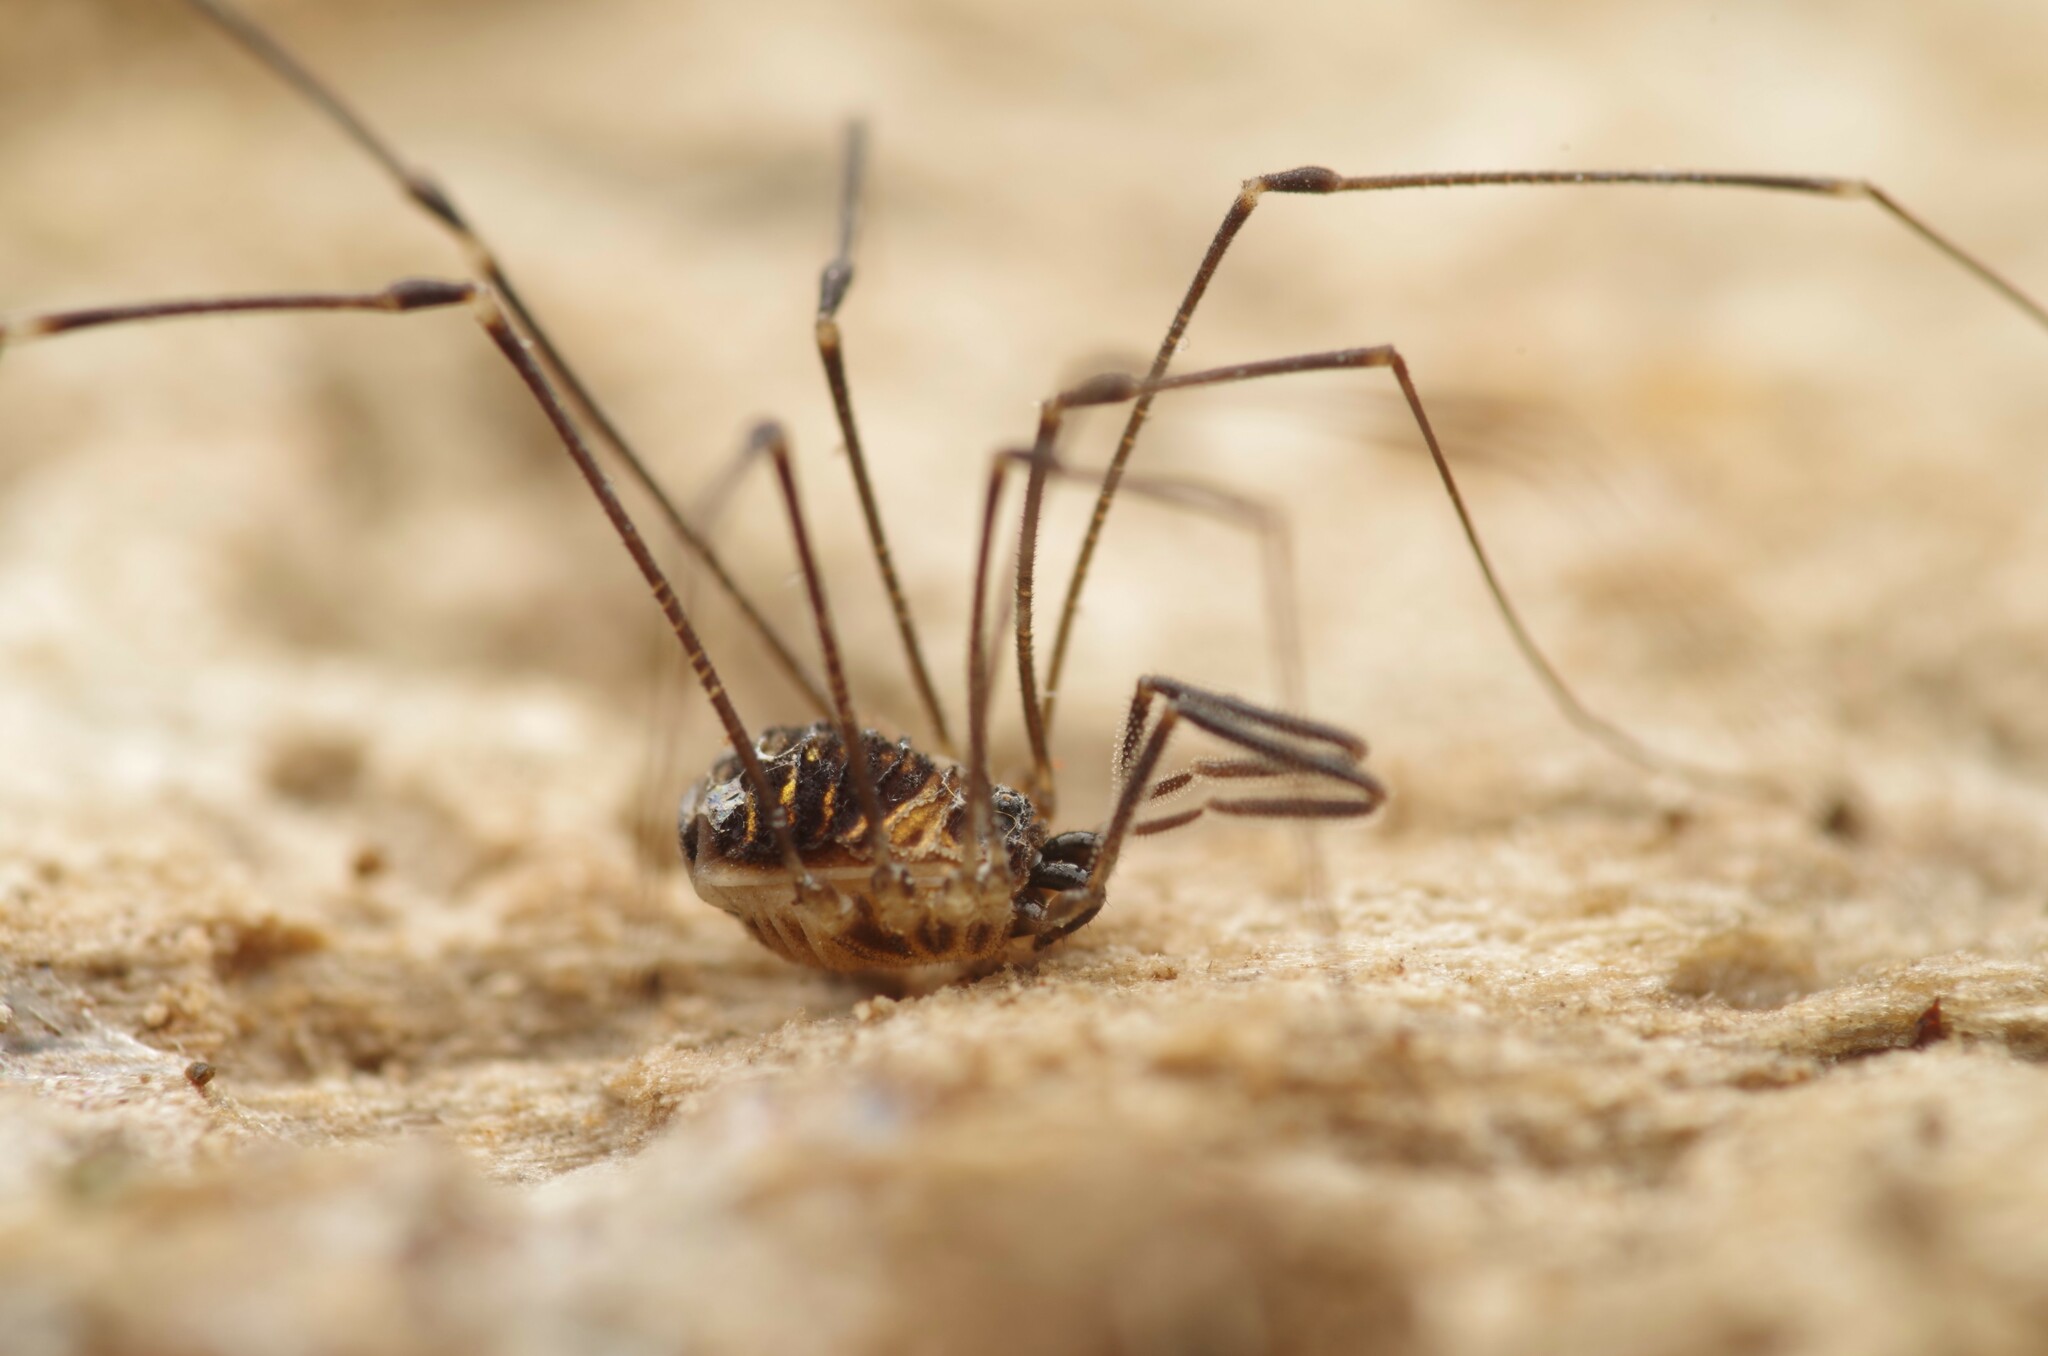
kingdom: Animalia
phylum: Arthropoda
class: Arachnida
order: Opiliones
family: Nemastomatidae
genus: Mitostoma
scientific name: Mitostoma chrysomelas
